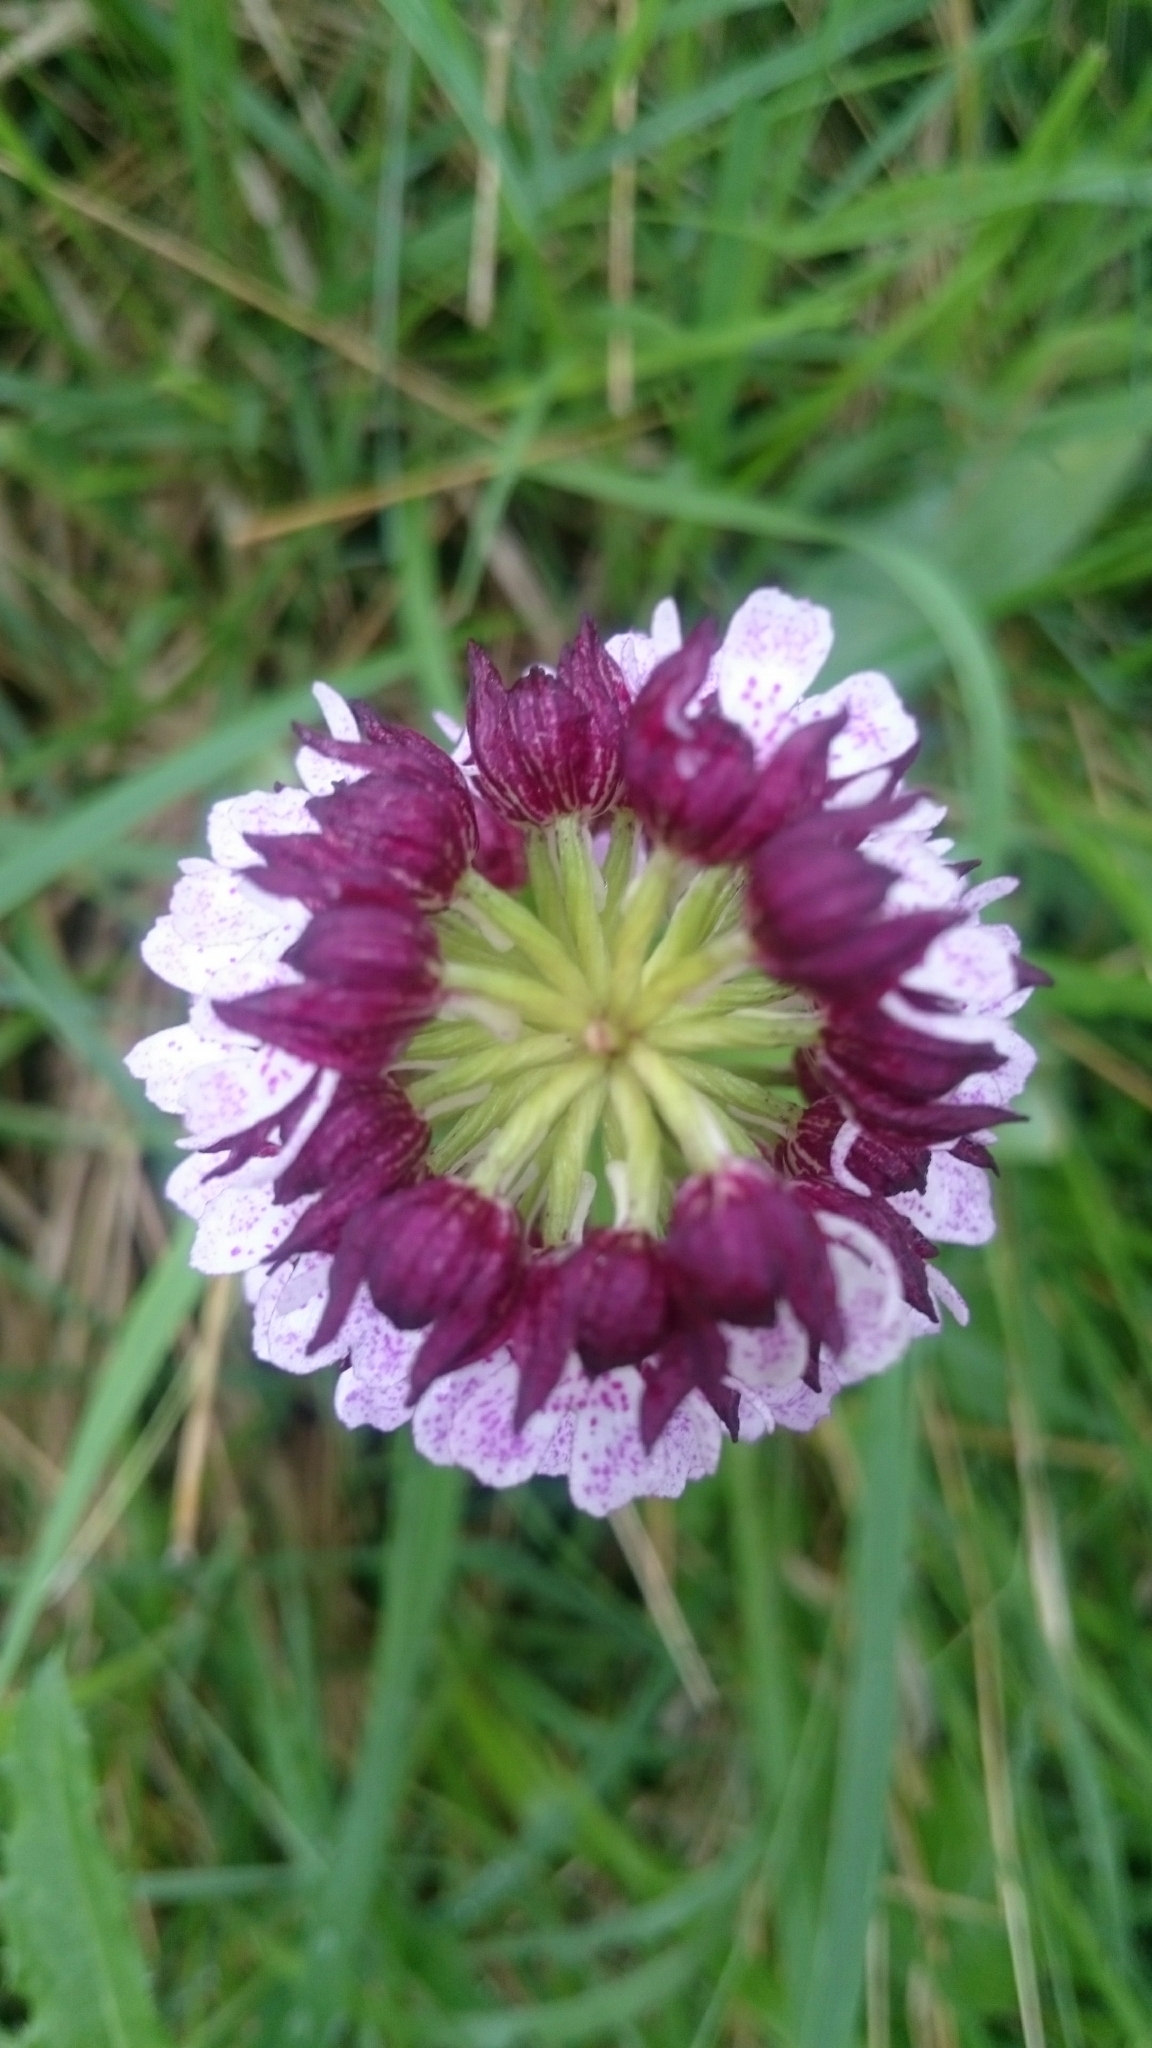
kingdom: Plantae
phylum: Tracheophyta
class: Liliopsida
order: Asparagales
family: Orchidaceae
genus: Orchis
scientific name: Orchis purpurea
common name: Lady orchid
